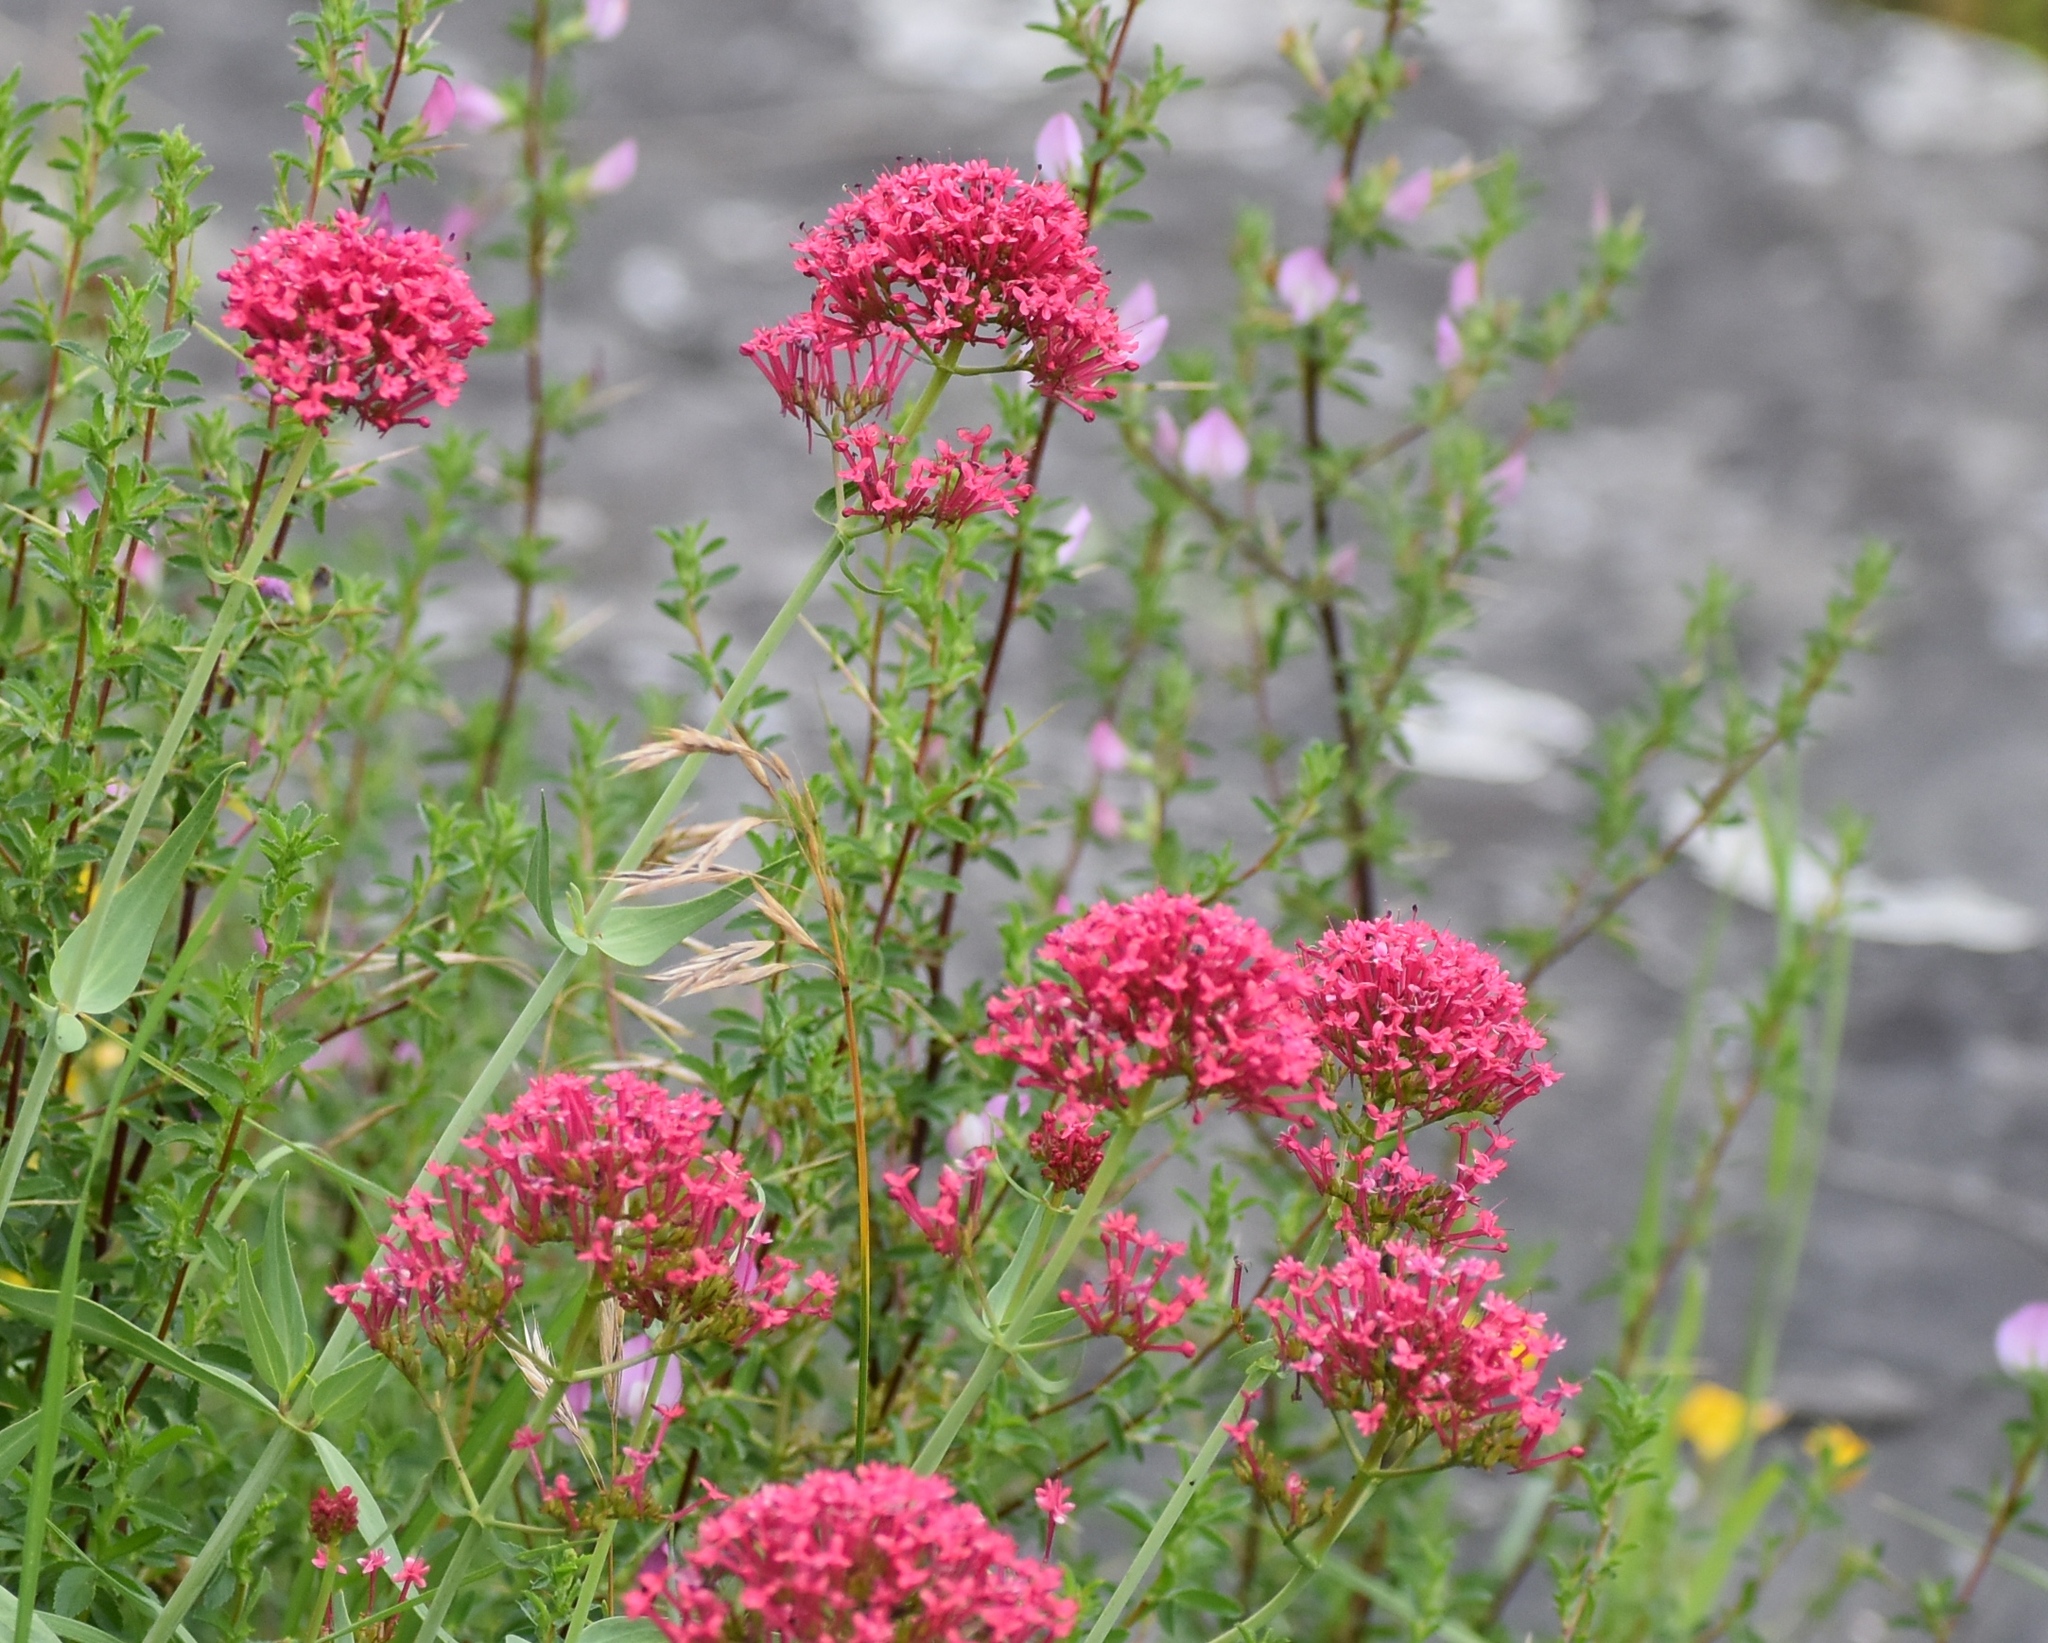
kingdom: Plantae
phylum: Tracheophyta
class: Magnoliopsida
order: Dipsacales
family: Caprifoliaceae
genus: Centranthus
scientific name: Centranthus ruber
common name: Red valerian
